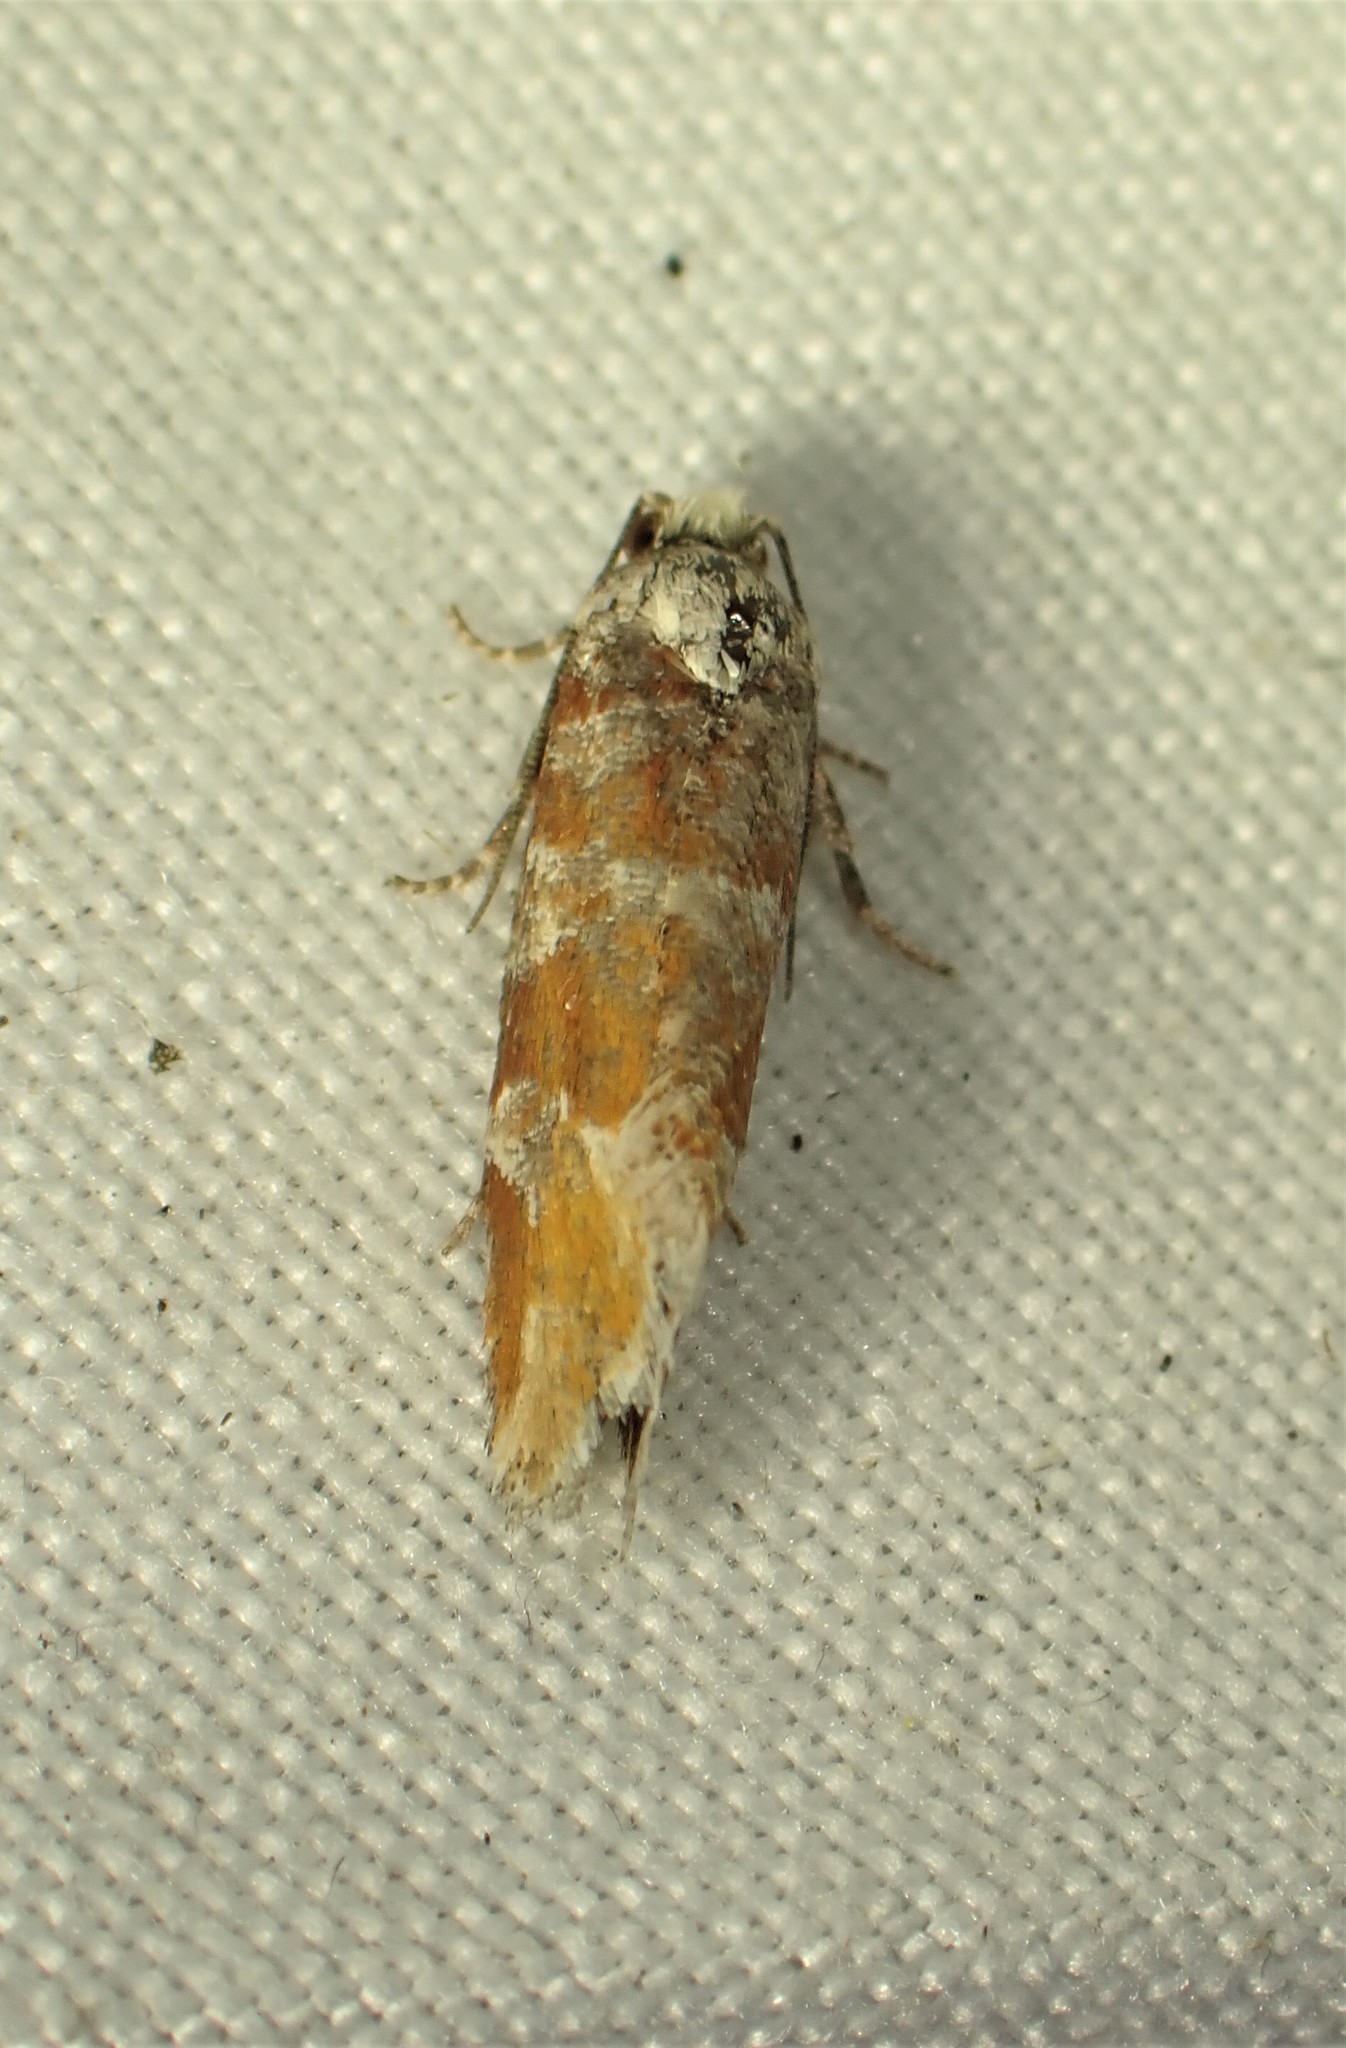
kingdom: Animalia
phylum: Arthropoda
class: Insecta
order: Lepidoptera
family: Tortricidae
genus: Eucopina
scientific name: Eucopina gloriola
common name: White-pine shoot borer moth
